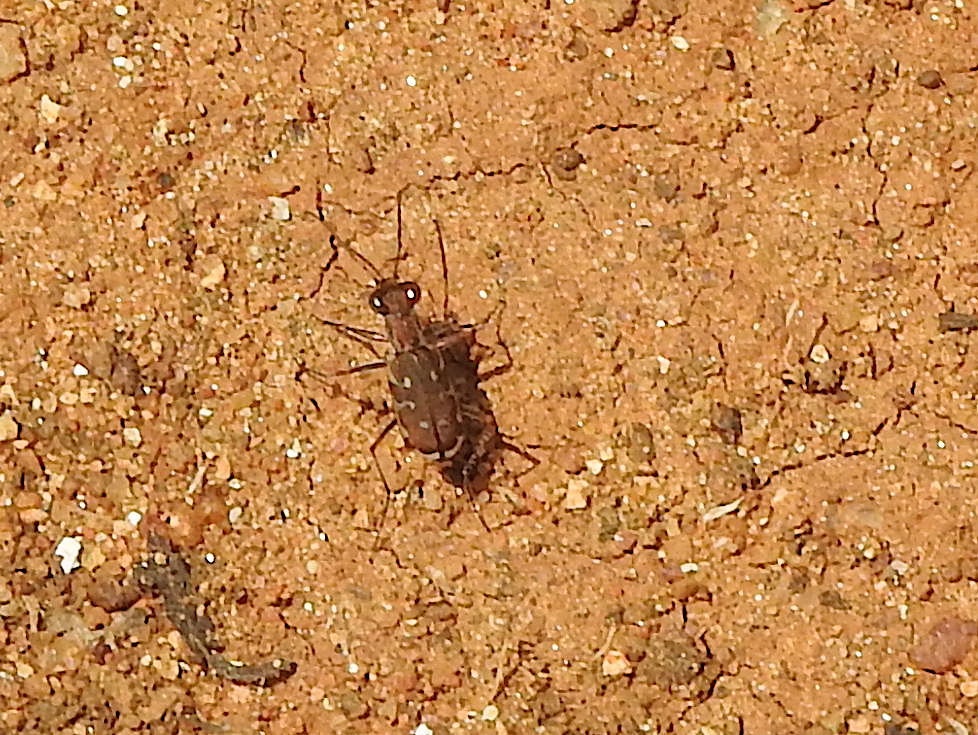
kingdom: Animalia
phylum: Arthropoda
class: Insecta
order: Coleoptera
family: Carabidae
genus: Myriochila
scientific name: Myriochila fastidiosa
